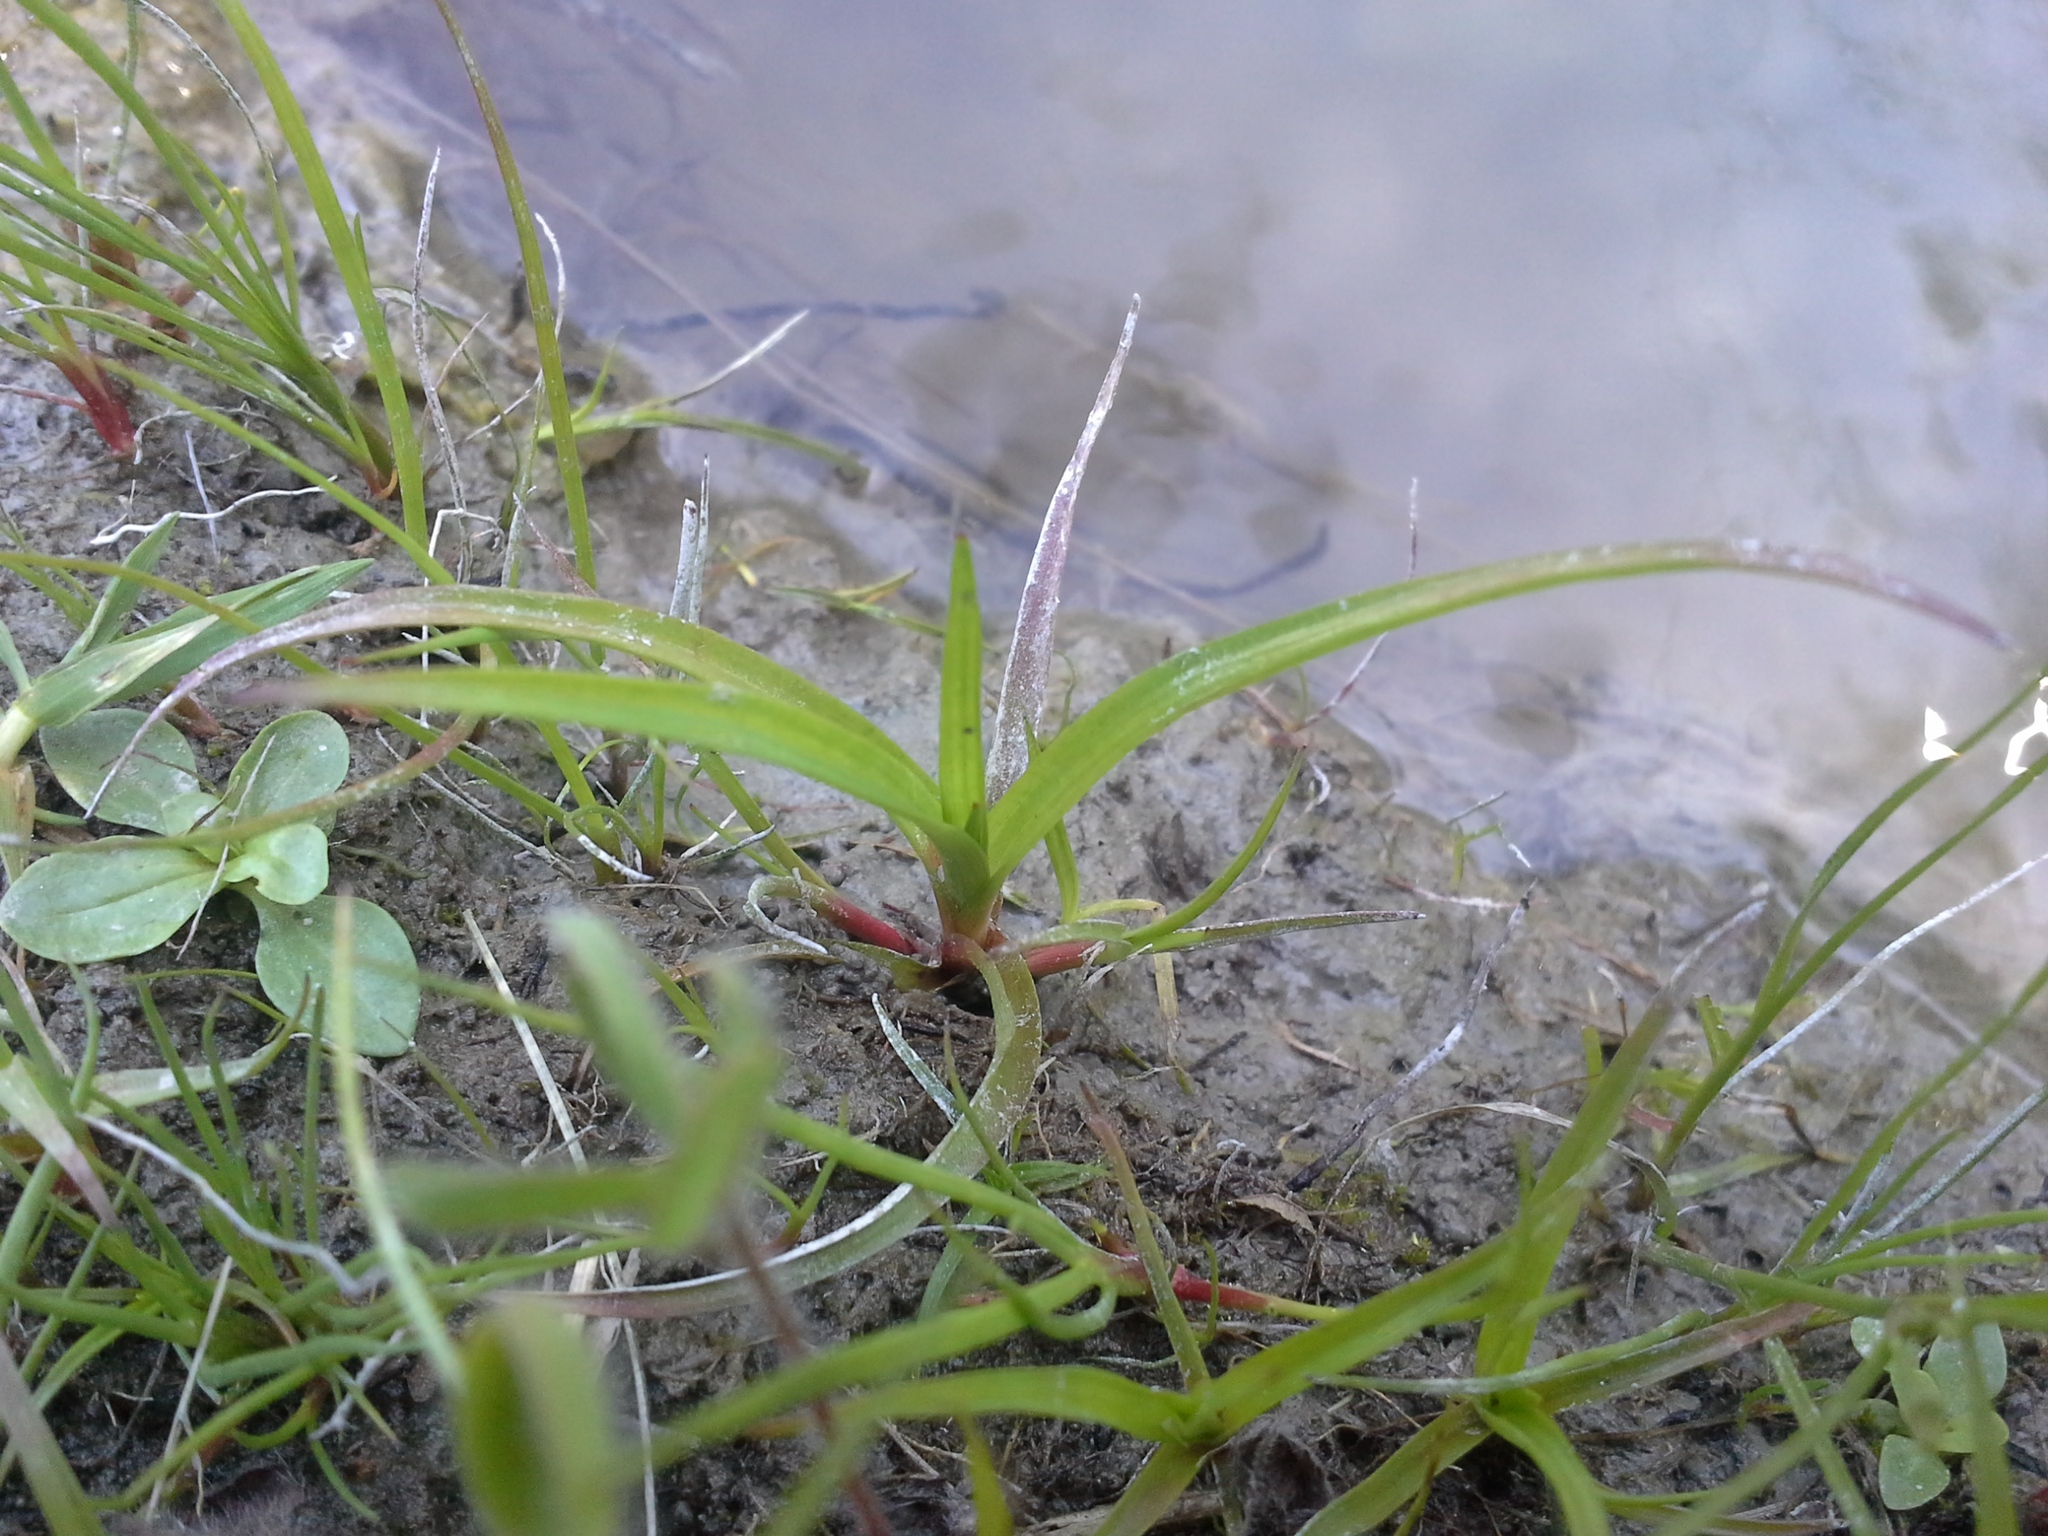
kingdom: Plantae
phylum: Tracheophyta
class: Liliopsida
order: Poales
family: Juncaceae
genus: Juncus
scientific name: Juncus planifolius
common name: Broadleaf rush
